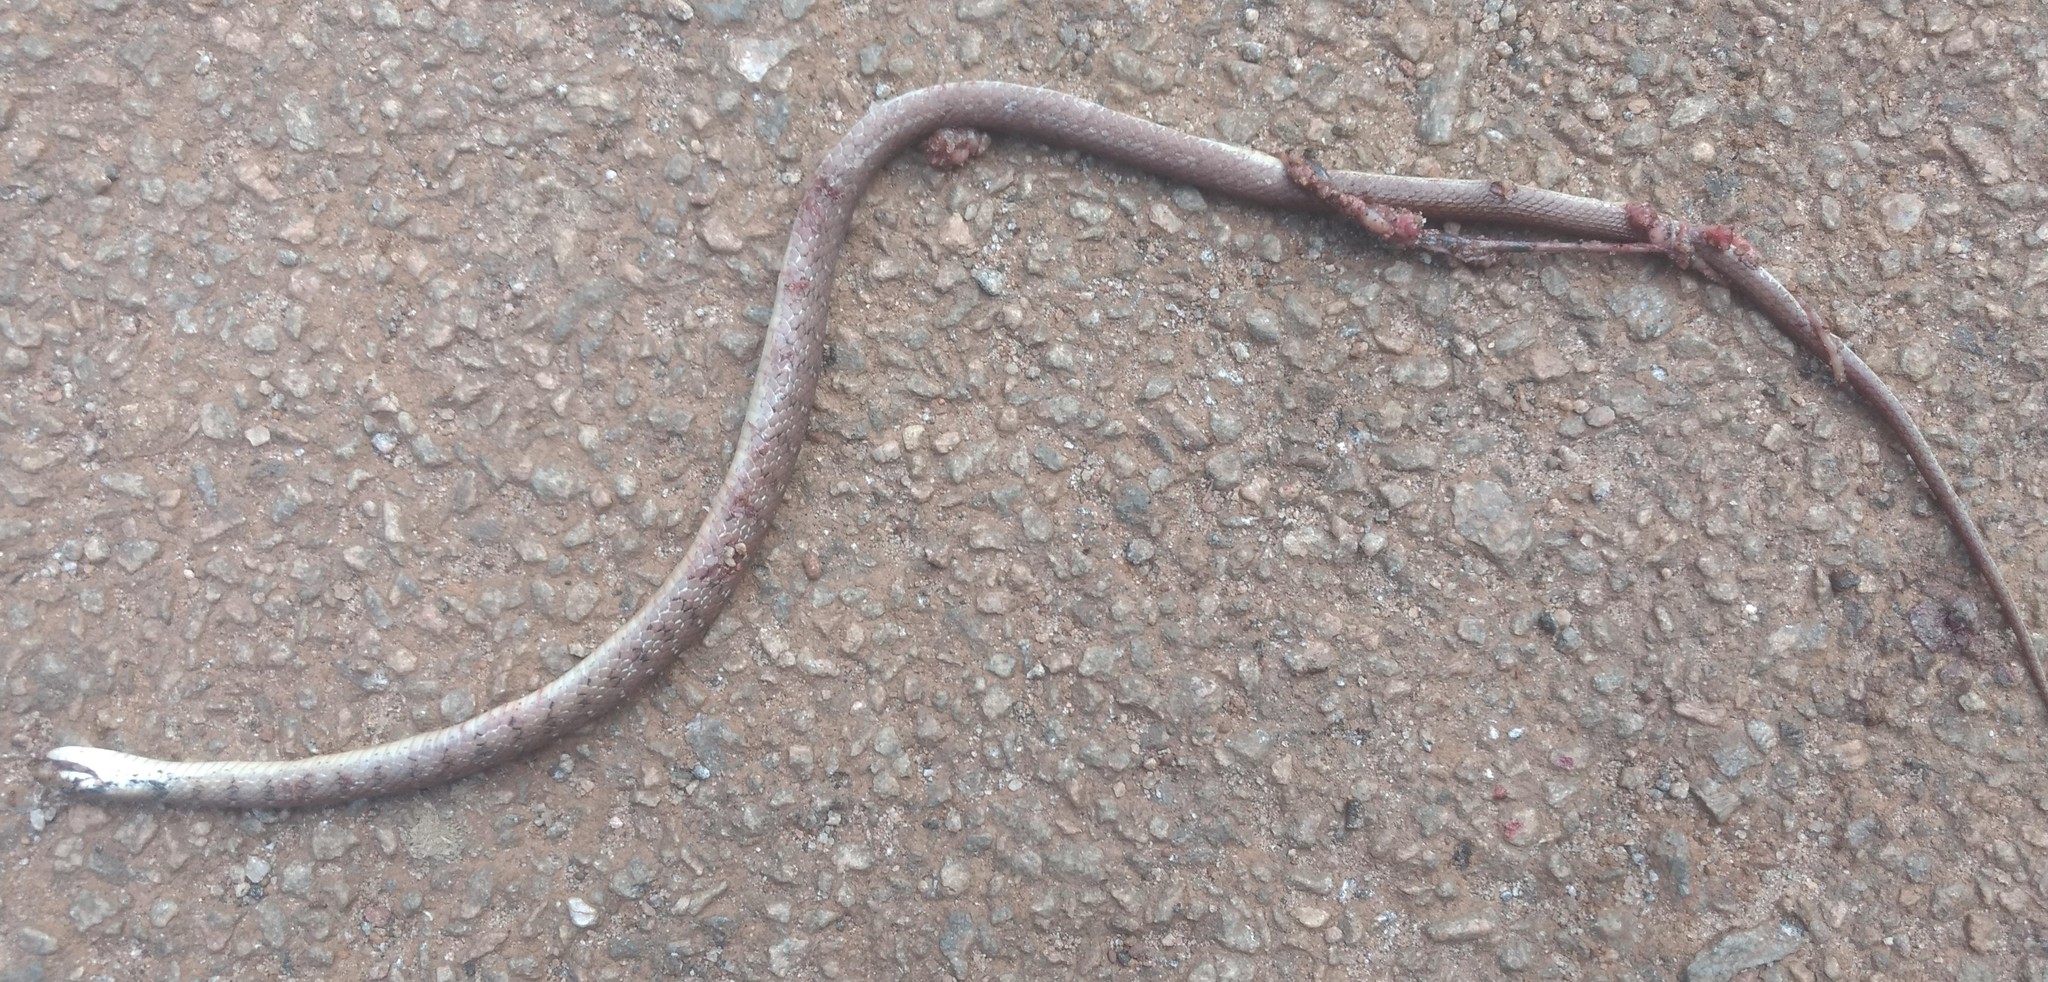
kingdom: Animalia
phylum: Chordata
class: Squamata
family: Colubridae
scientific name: Colubridae
